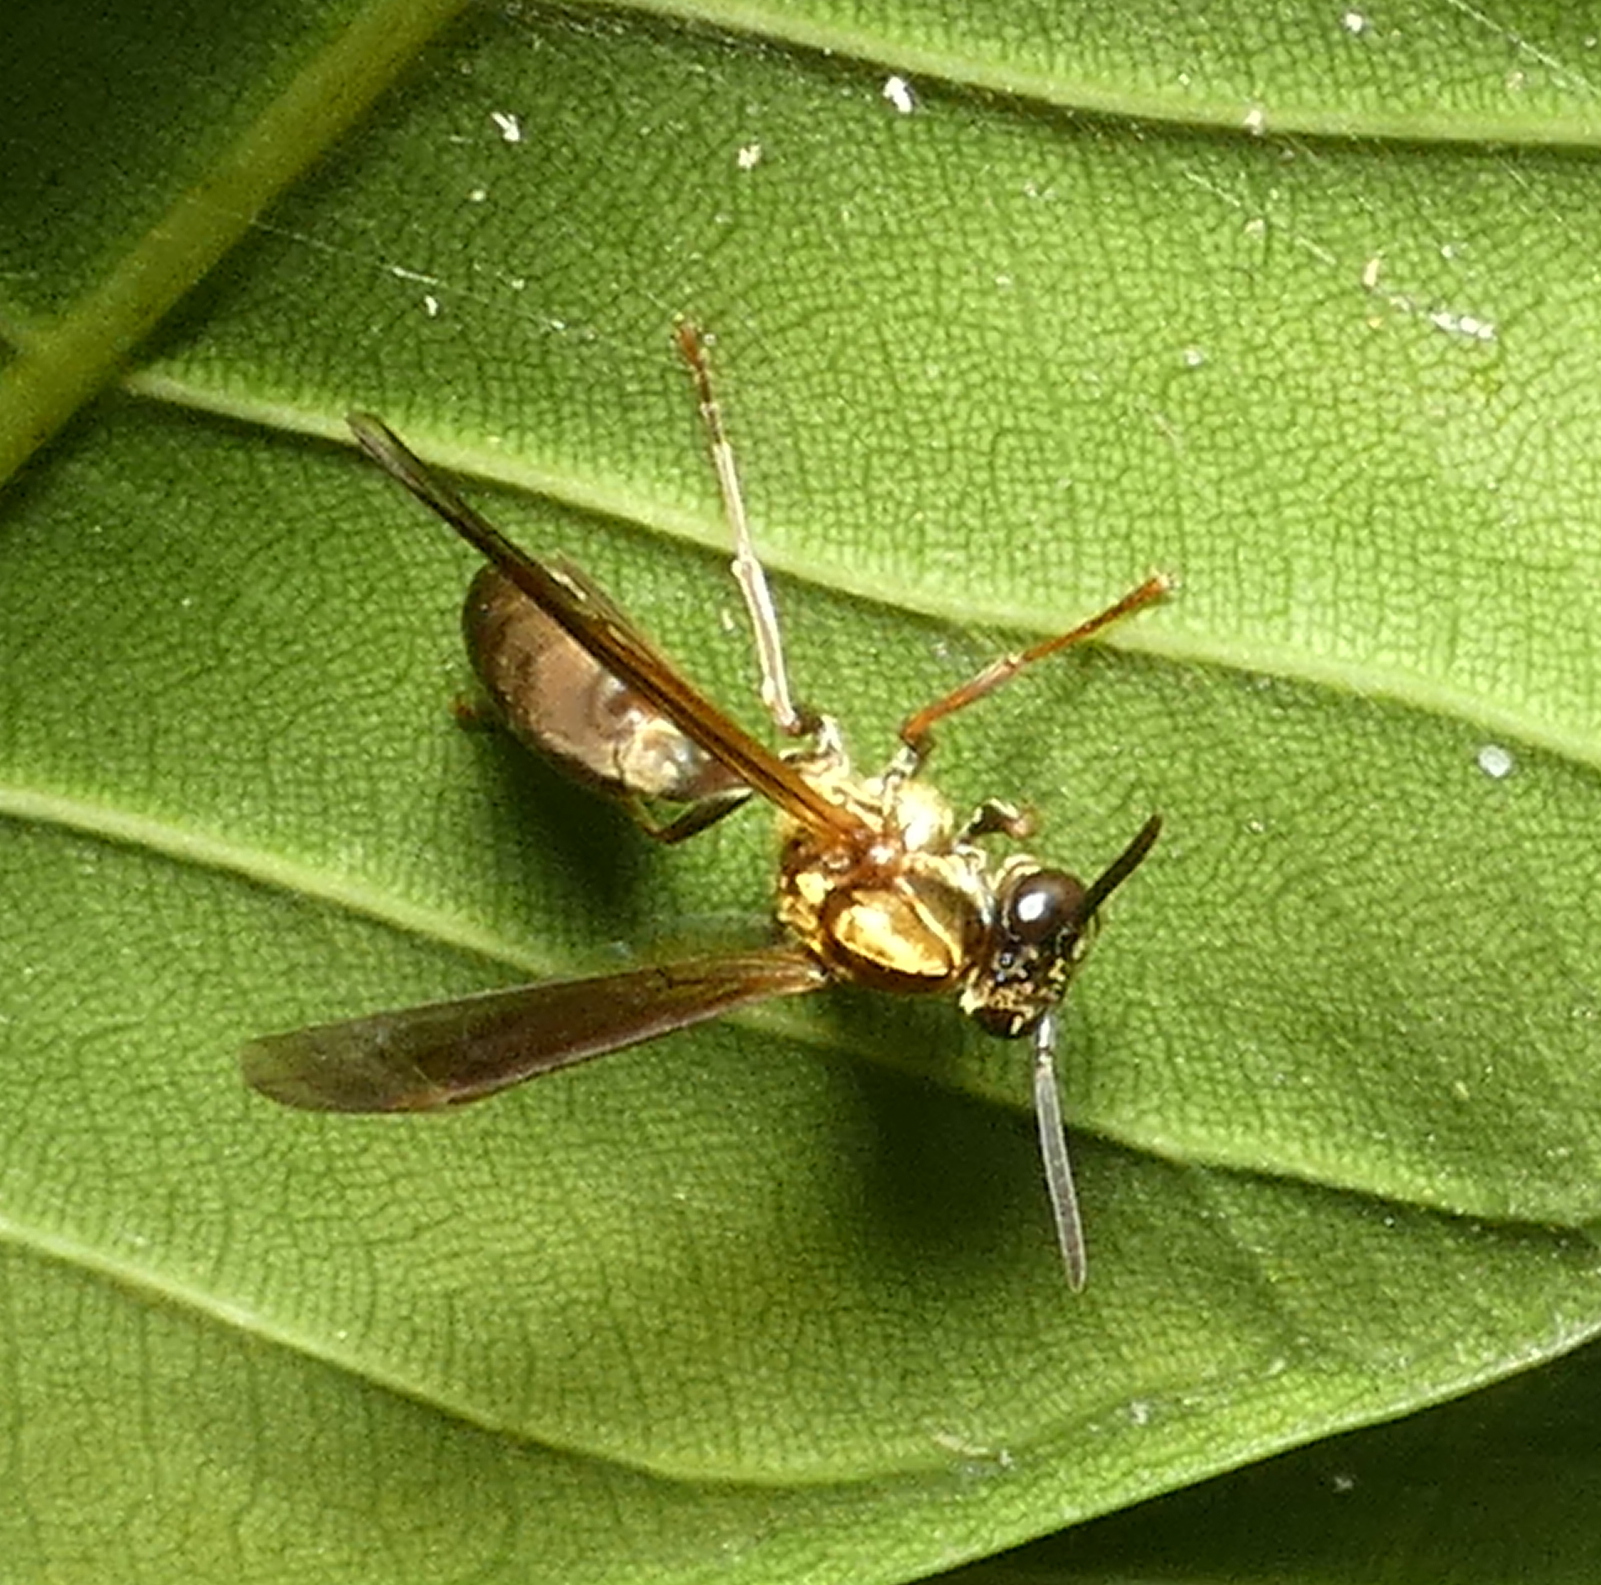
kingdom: Animalia
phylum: Arthropoda
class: Insecta
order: Hymenoptera
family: Eumenidae
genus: Polybia
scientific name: Polybia chrysothorax
